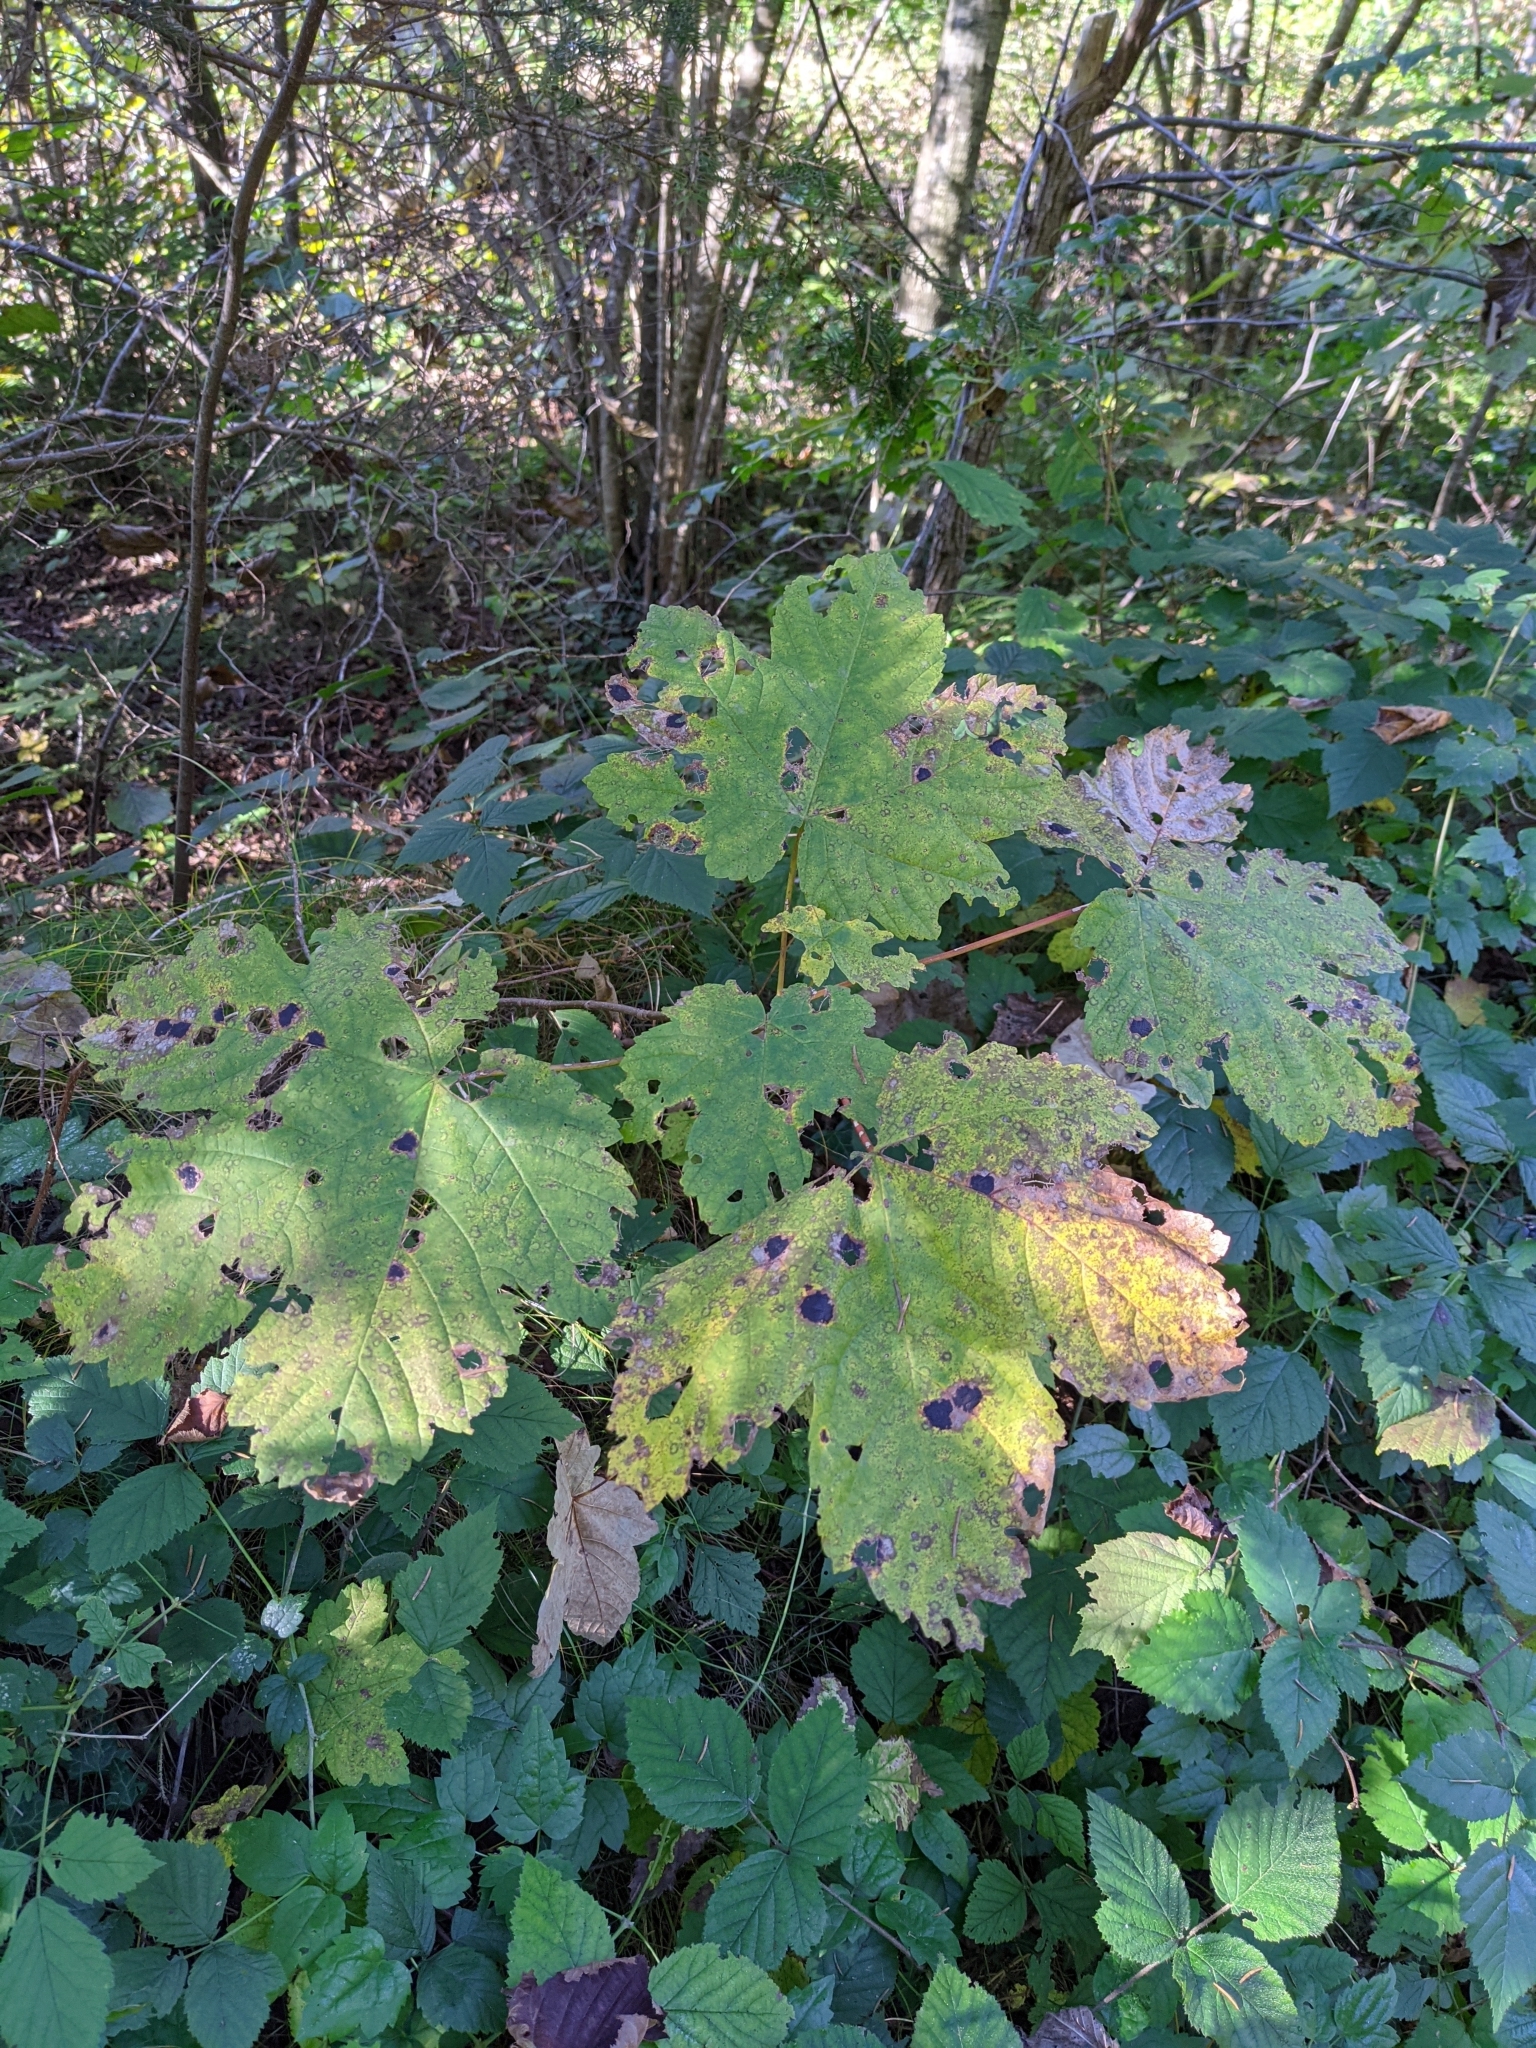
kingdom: Plantae
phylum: Tracheophyta
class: Magnoliopsida
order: Sapindales
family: Sapindaceae
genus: Acer
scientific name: Acer pseudoplatanus
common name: Sycamore
